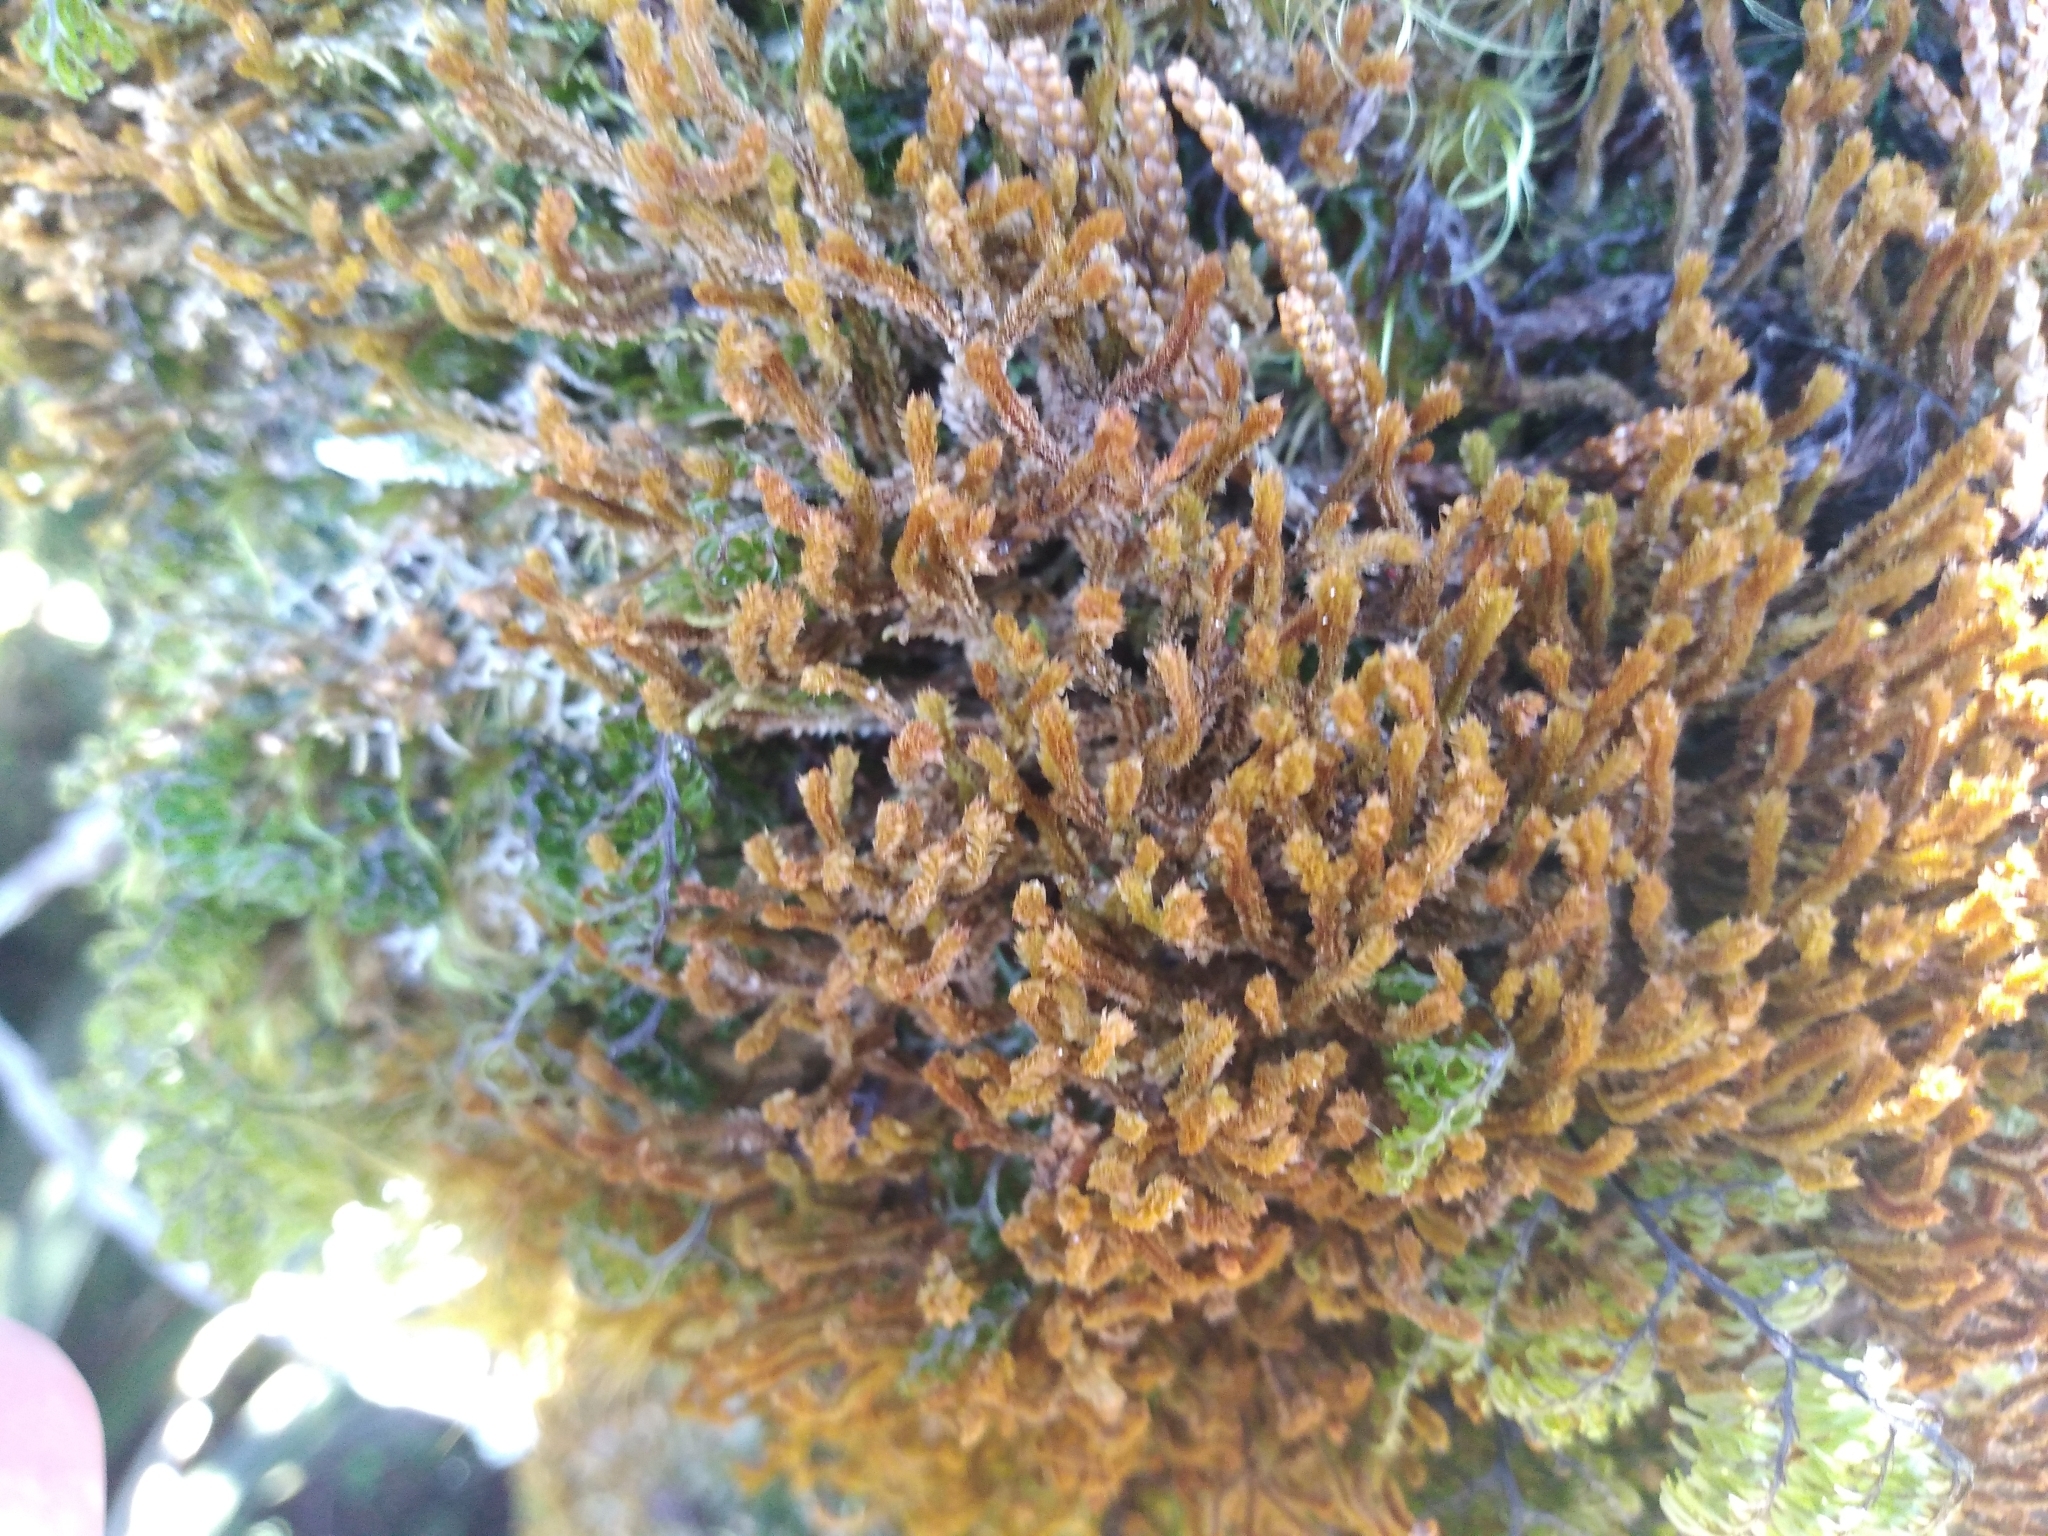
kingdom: Plantae
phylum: Marchantiophyta
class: Jungermanniopsida
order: Jungermanniales
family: Anastrophyllaceae
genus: Chandonanthus
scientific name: Chandonanthus squarrosus
